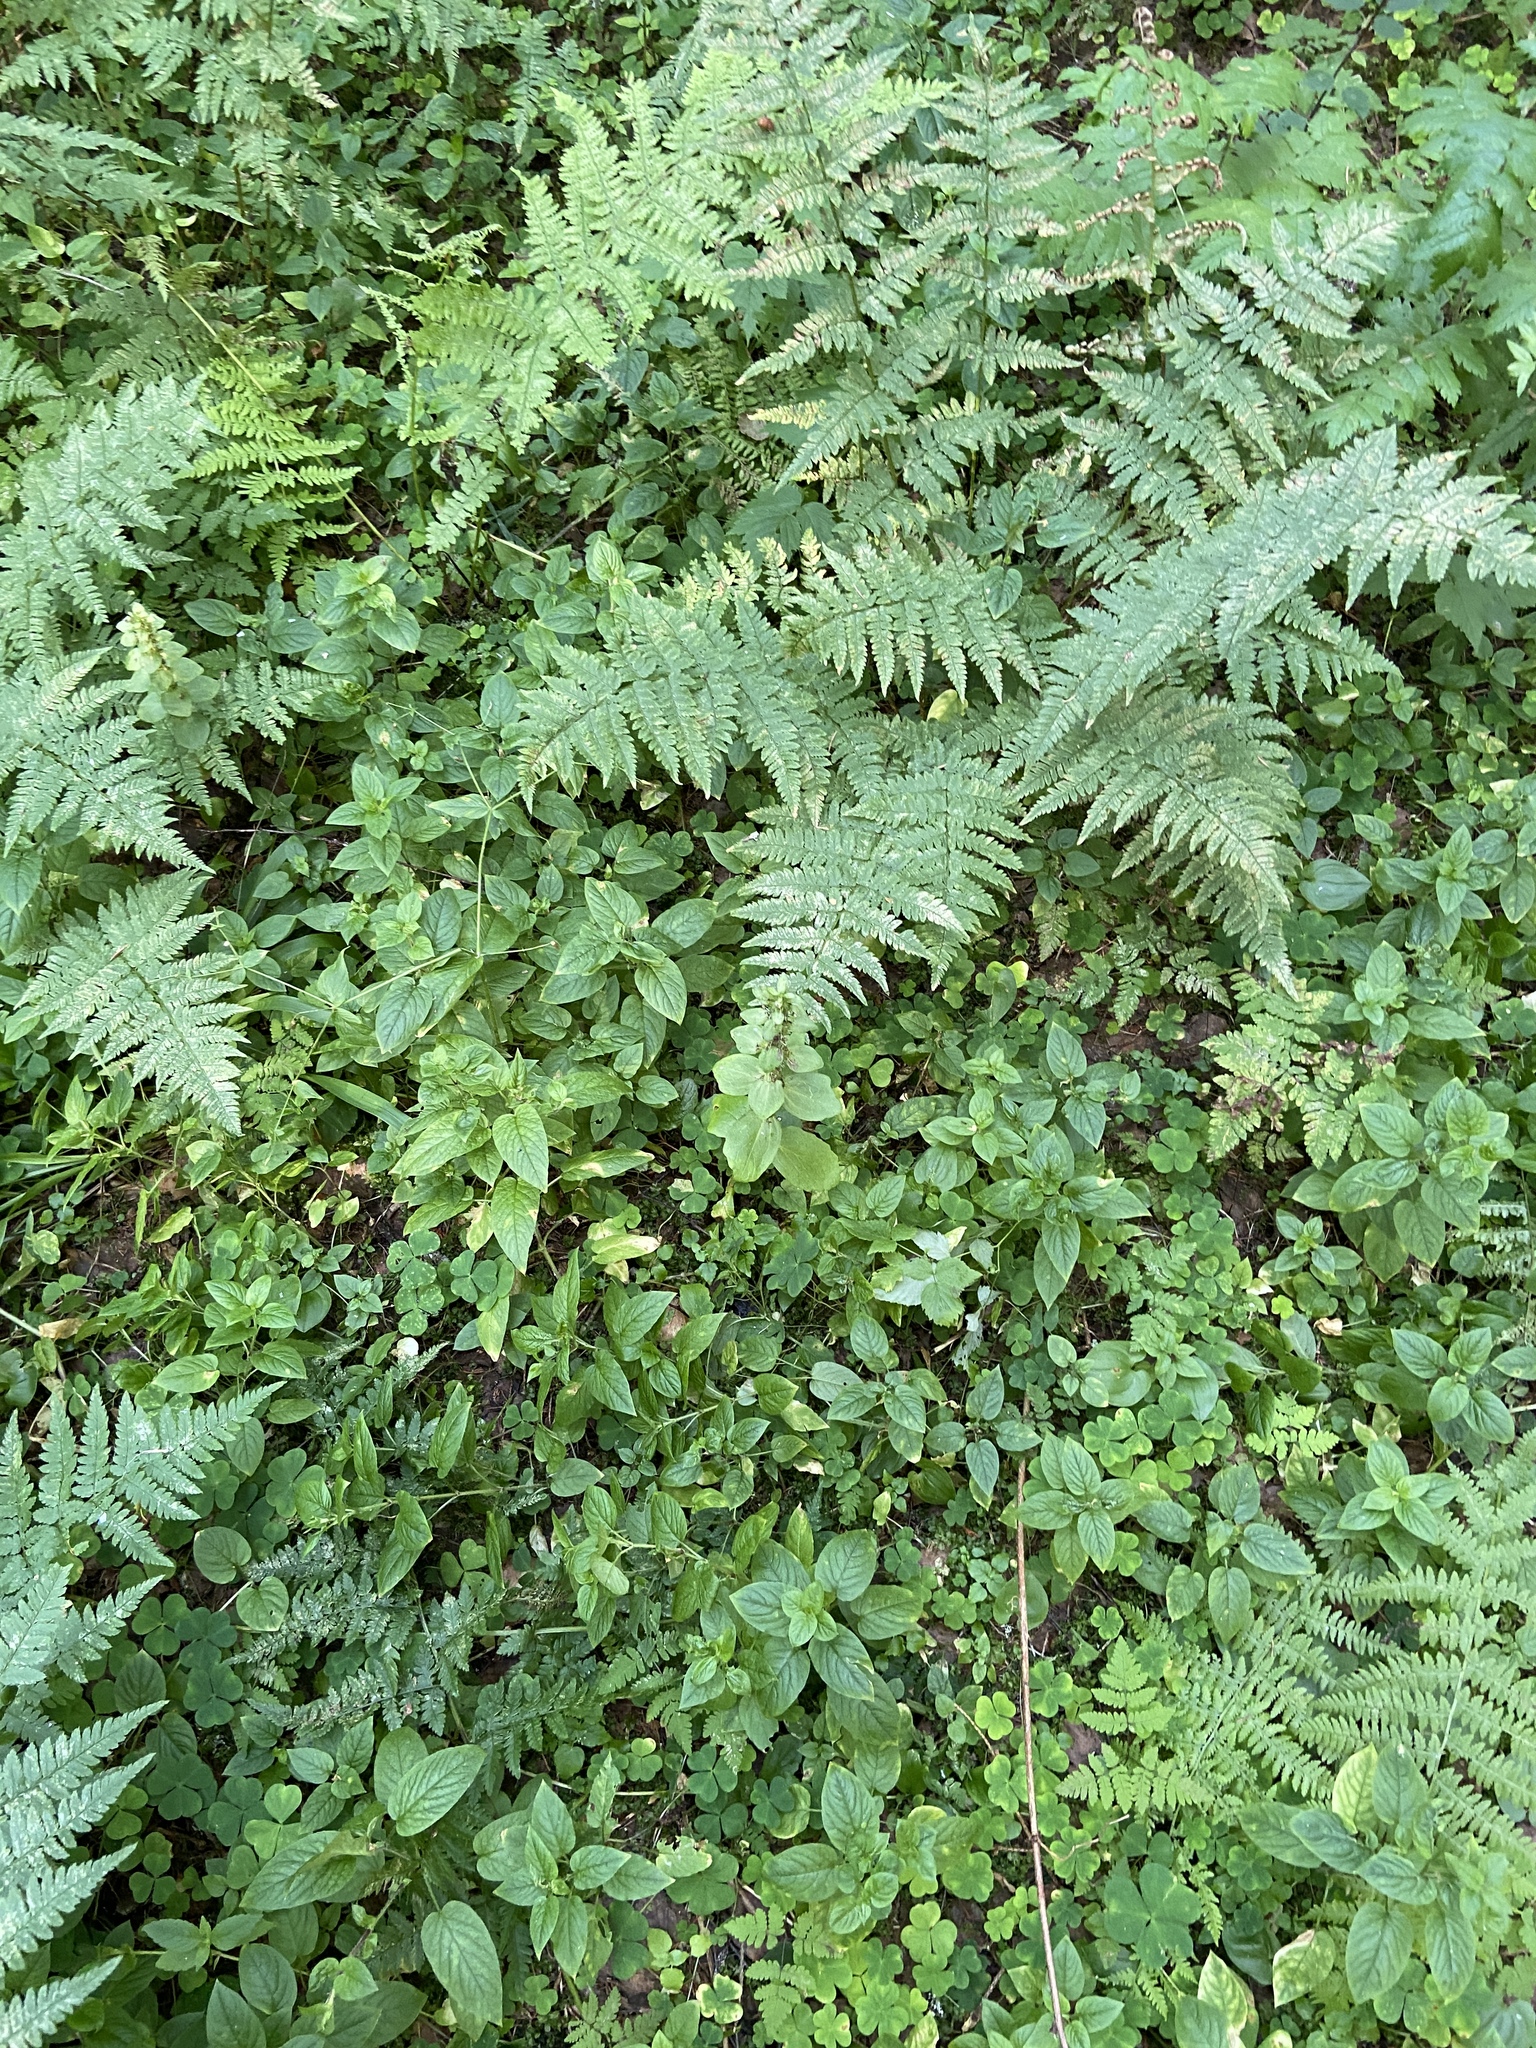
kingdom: Plantae
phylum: Tracheophyta
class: Polypodiopsida
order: Polypodiales
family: Dryopteridaceae
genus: Dryopteris
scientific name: Dryopteris carthusiana
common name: Narrow buckler-fern
